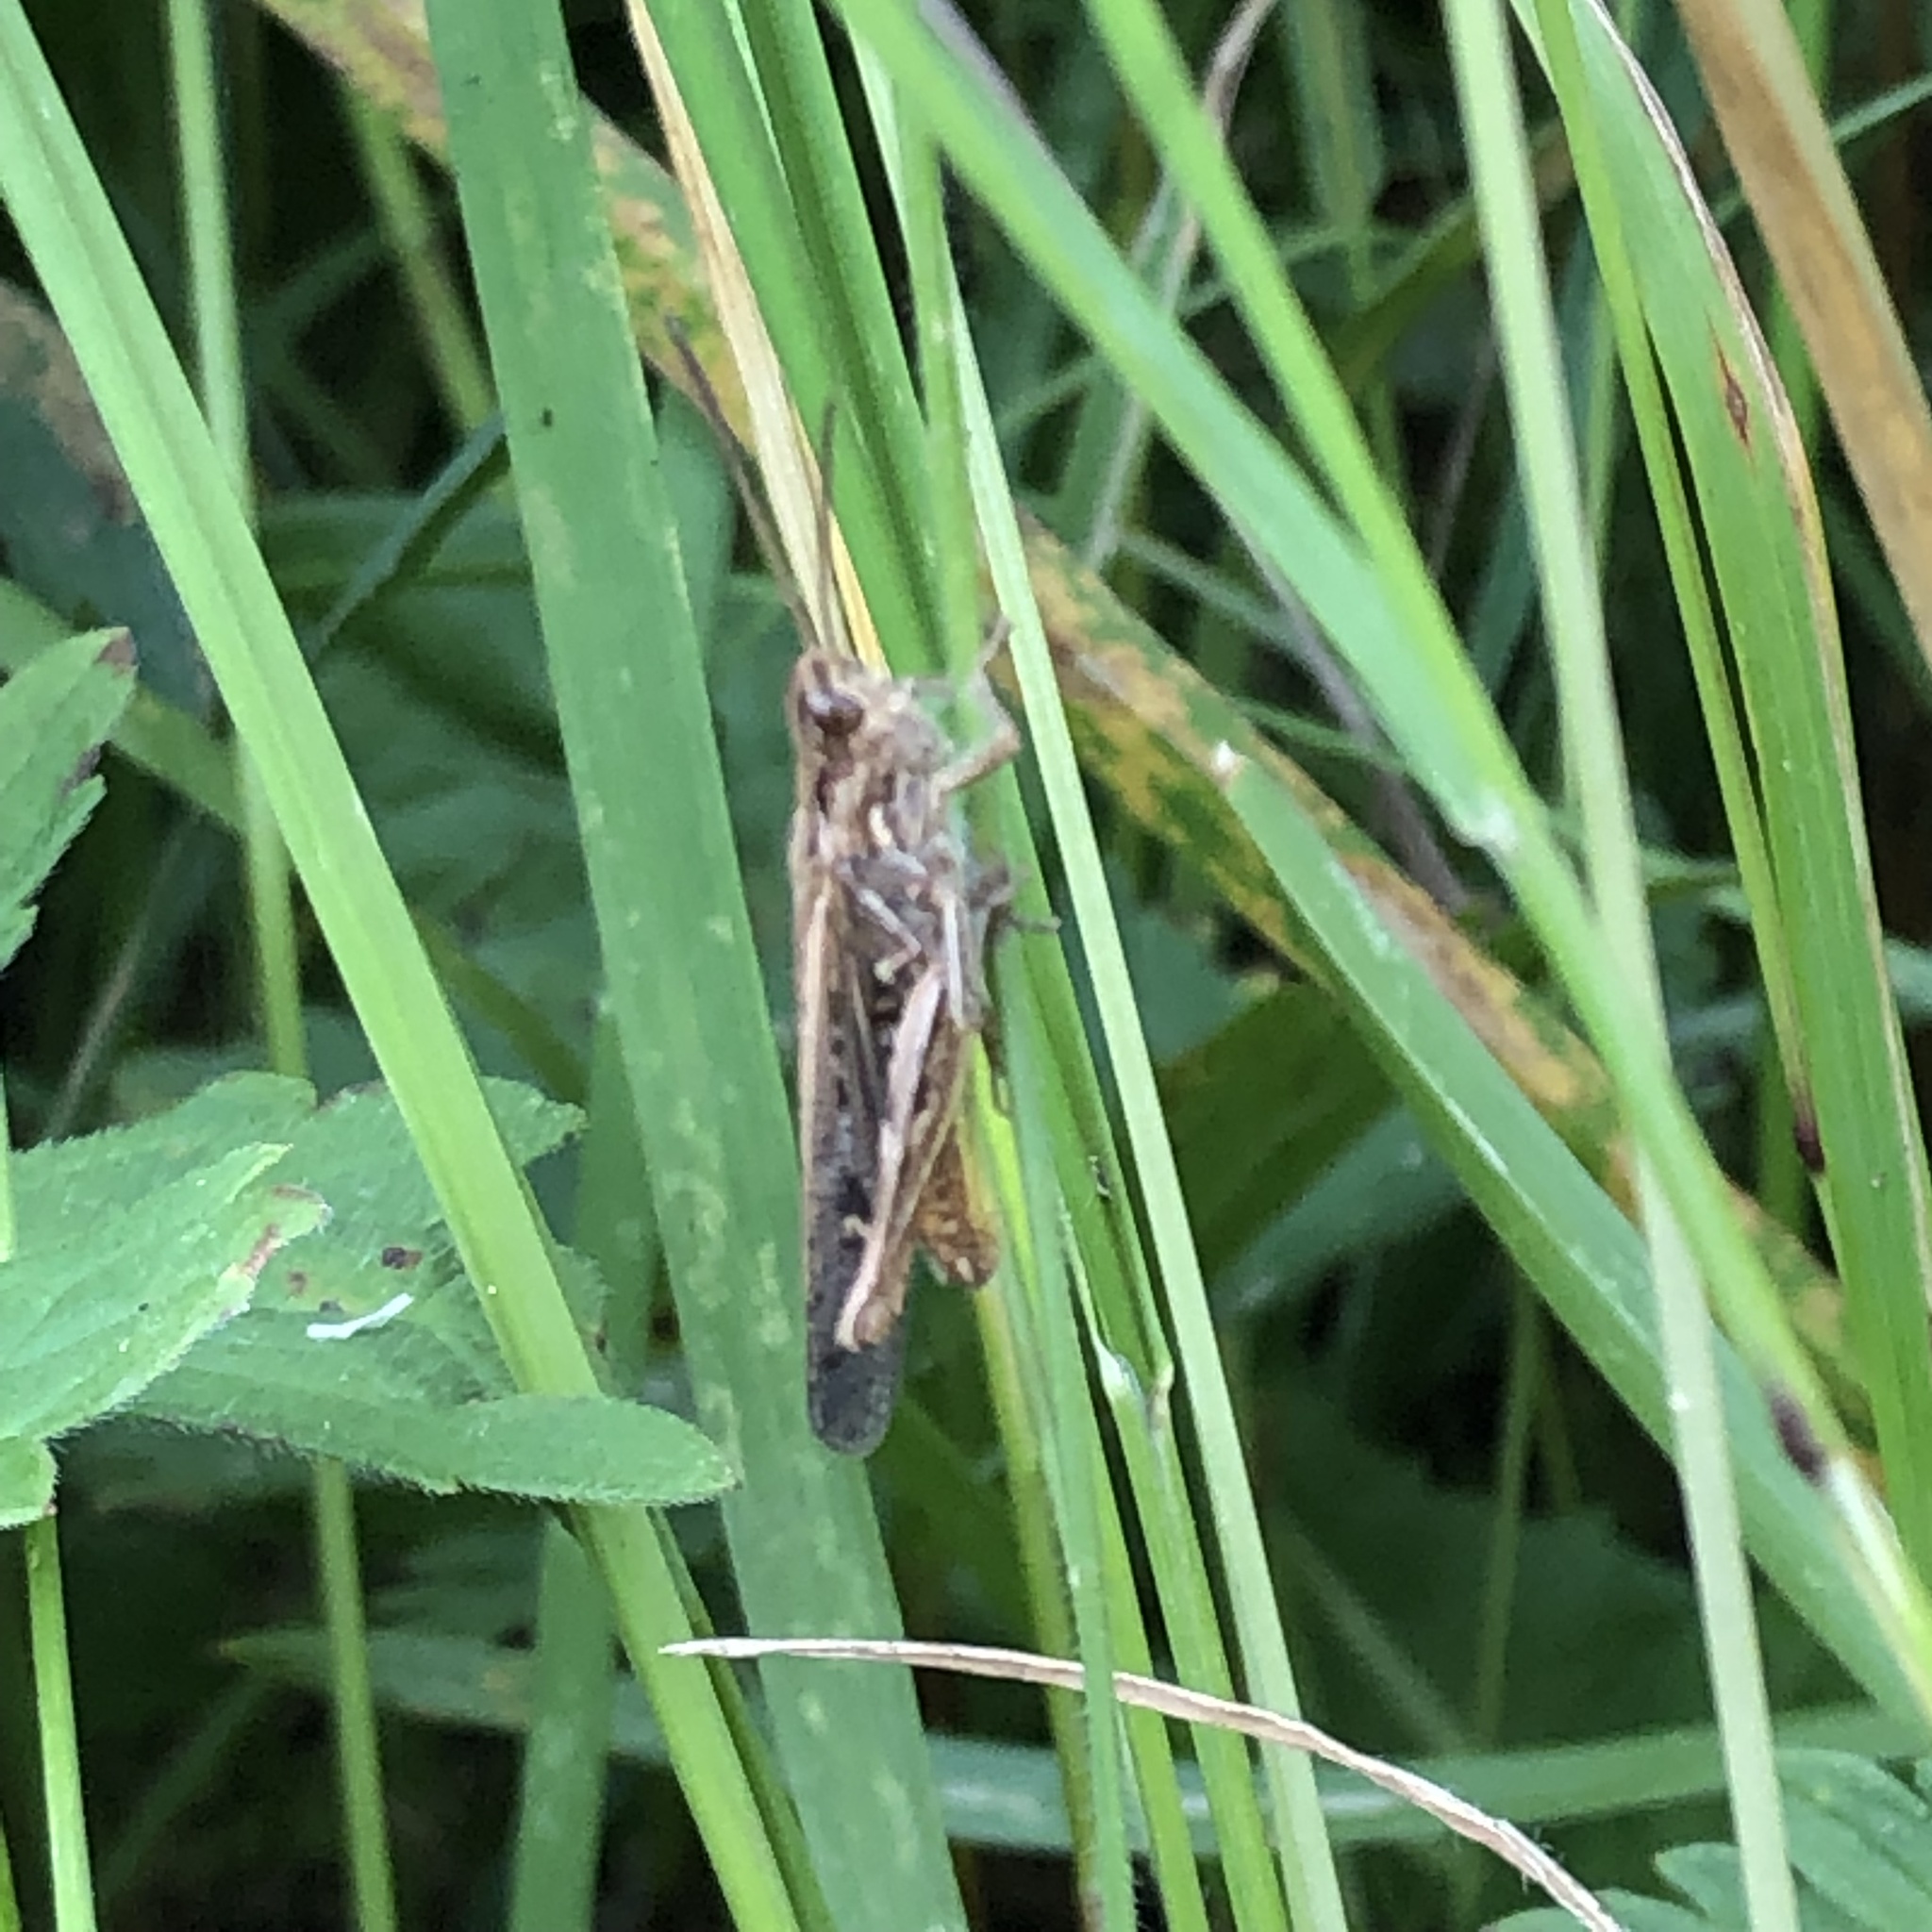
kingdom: Animalia
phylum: Arthropoda
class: Insecta
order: Orthoptera
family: Acrididae
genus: Chorthippus
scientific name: Chorthippus brunneus
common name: Field grasshopper
